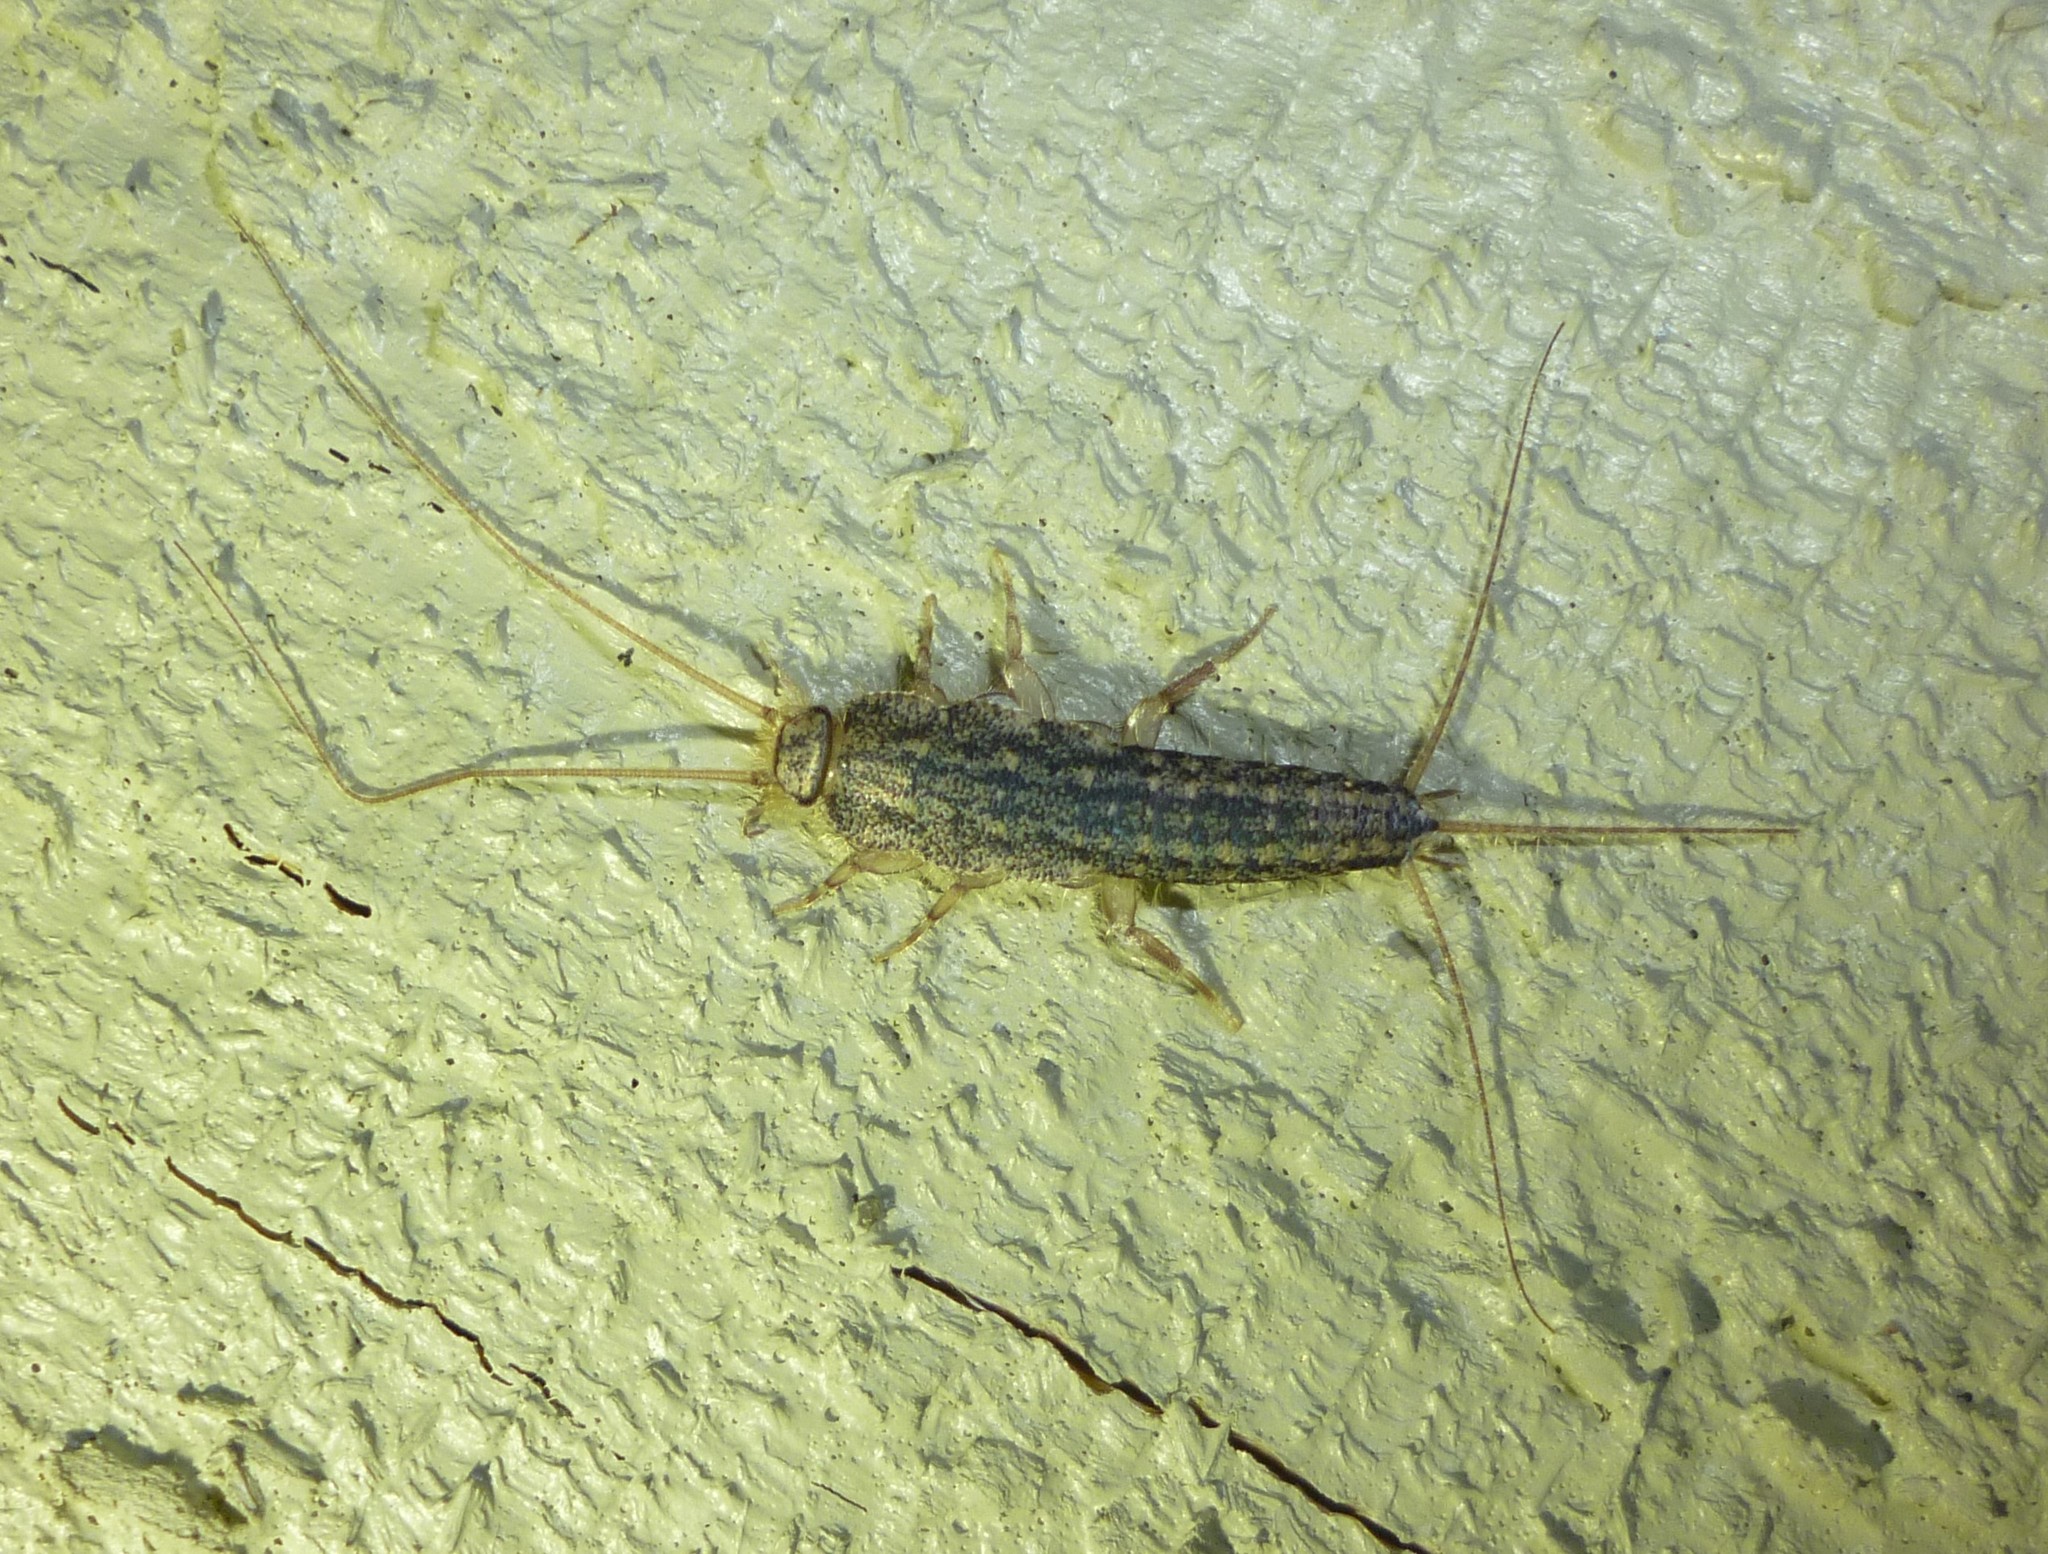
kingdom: Animalia
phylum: Arthropoda
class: Insecta
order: Zygentoma
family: Lepismatidae
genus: Ctenolepisma
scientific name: Ctenolepisma lineata
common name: Four-lined silverfish
